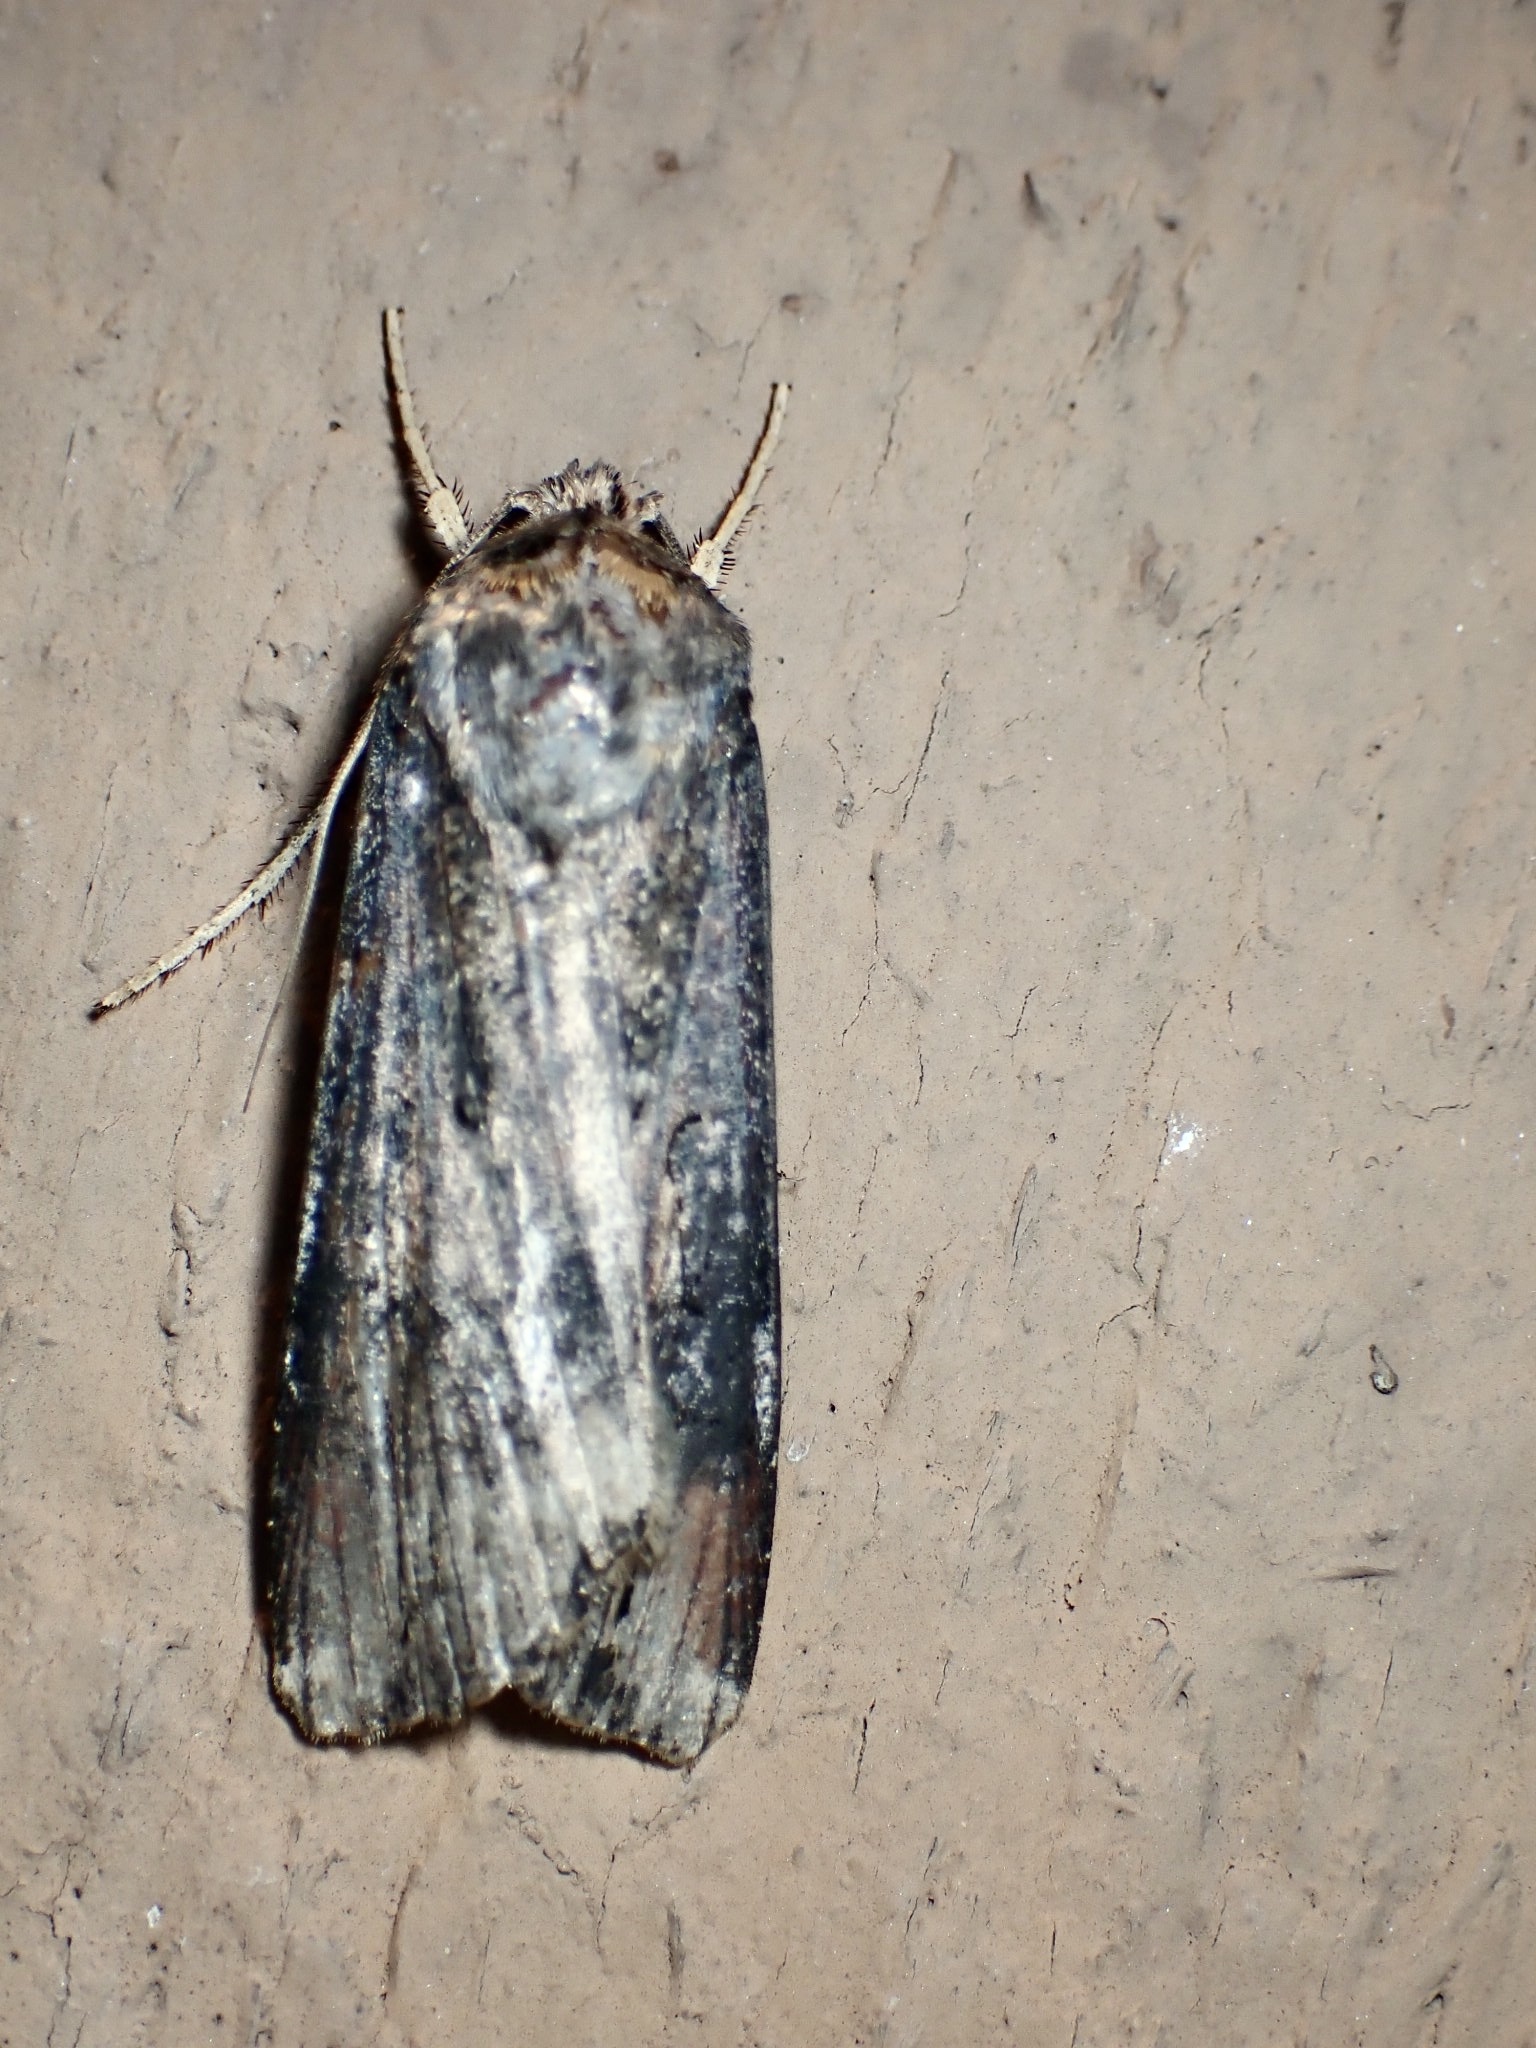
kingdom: Animalia
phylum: Arthropoda
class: Insecta
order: Lepidoptera
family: Noctuidae
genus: Agrotis
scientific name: Agrotis ipsilon
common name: Dark sword-grass
